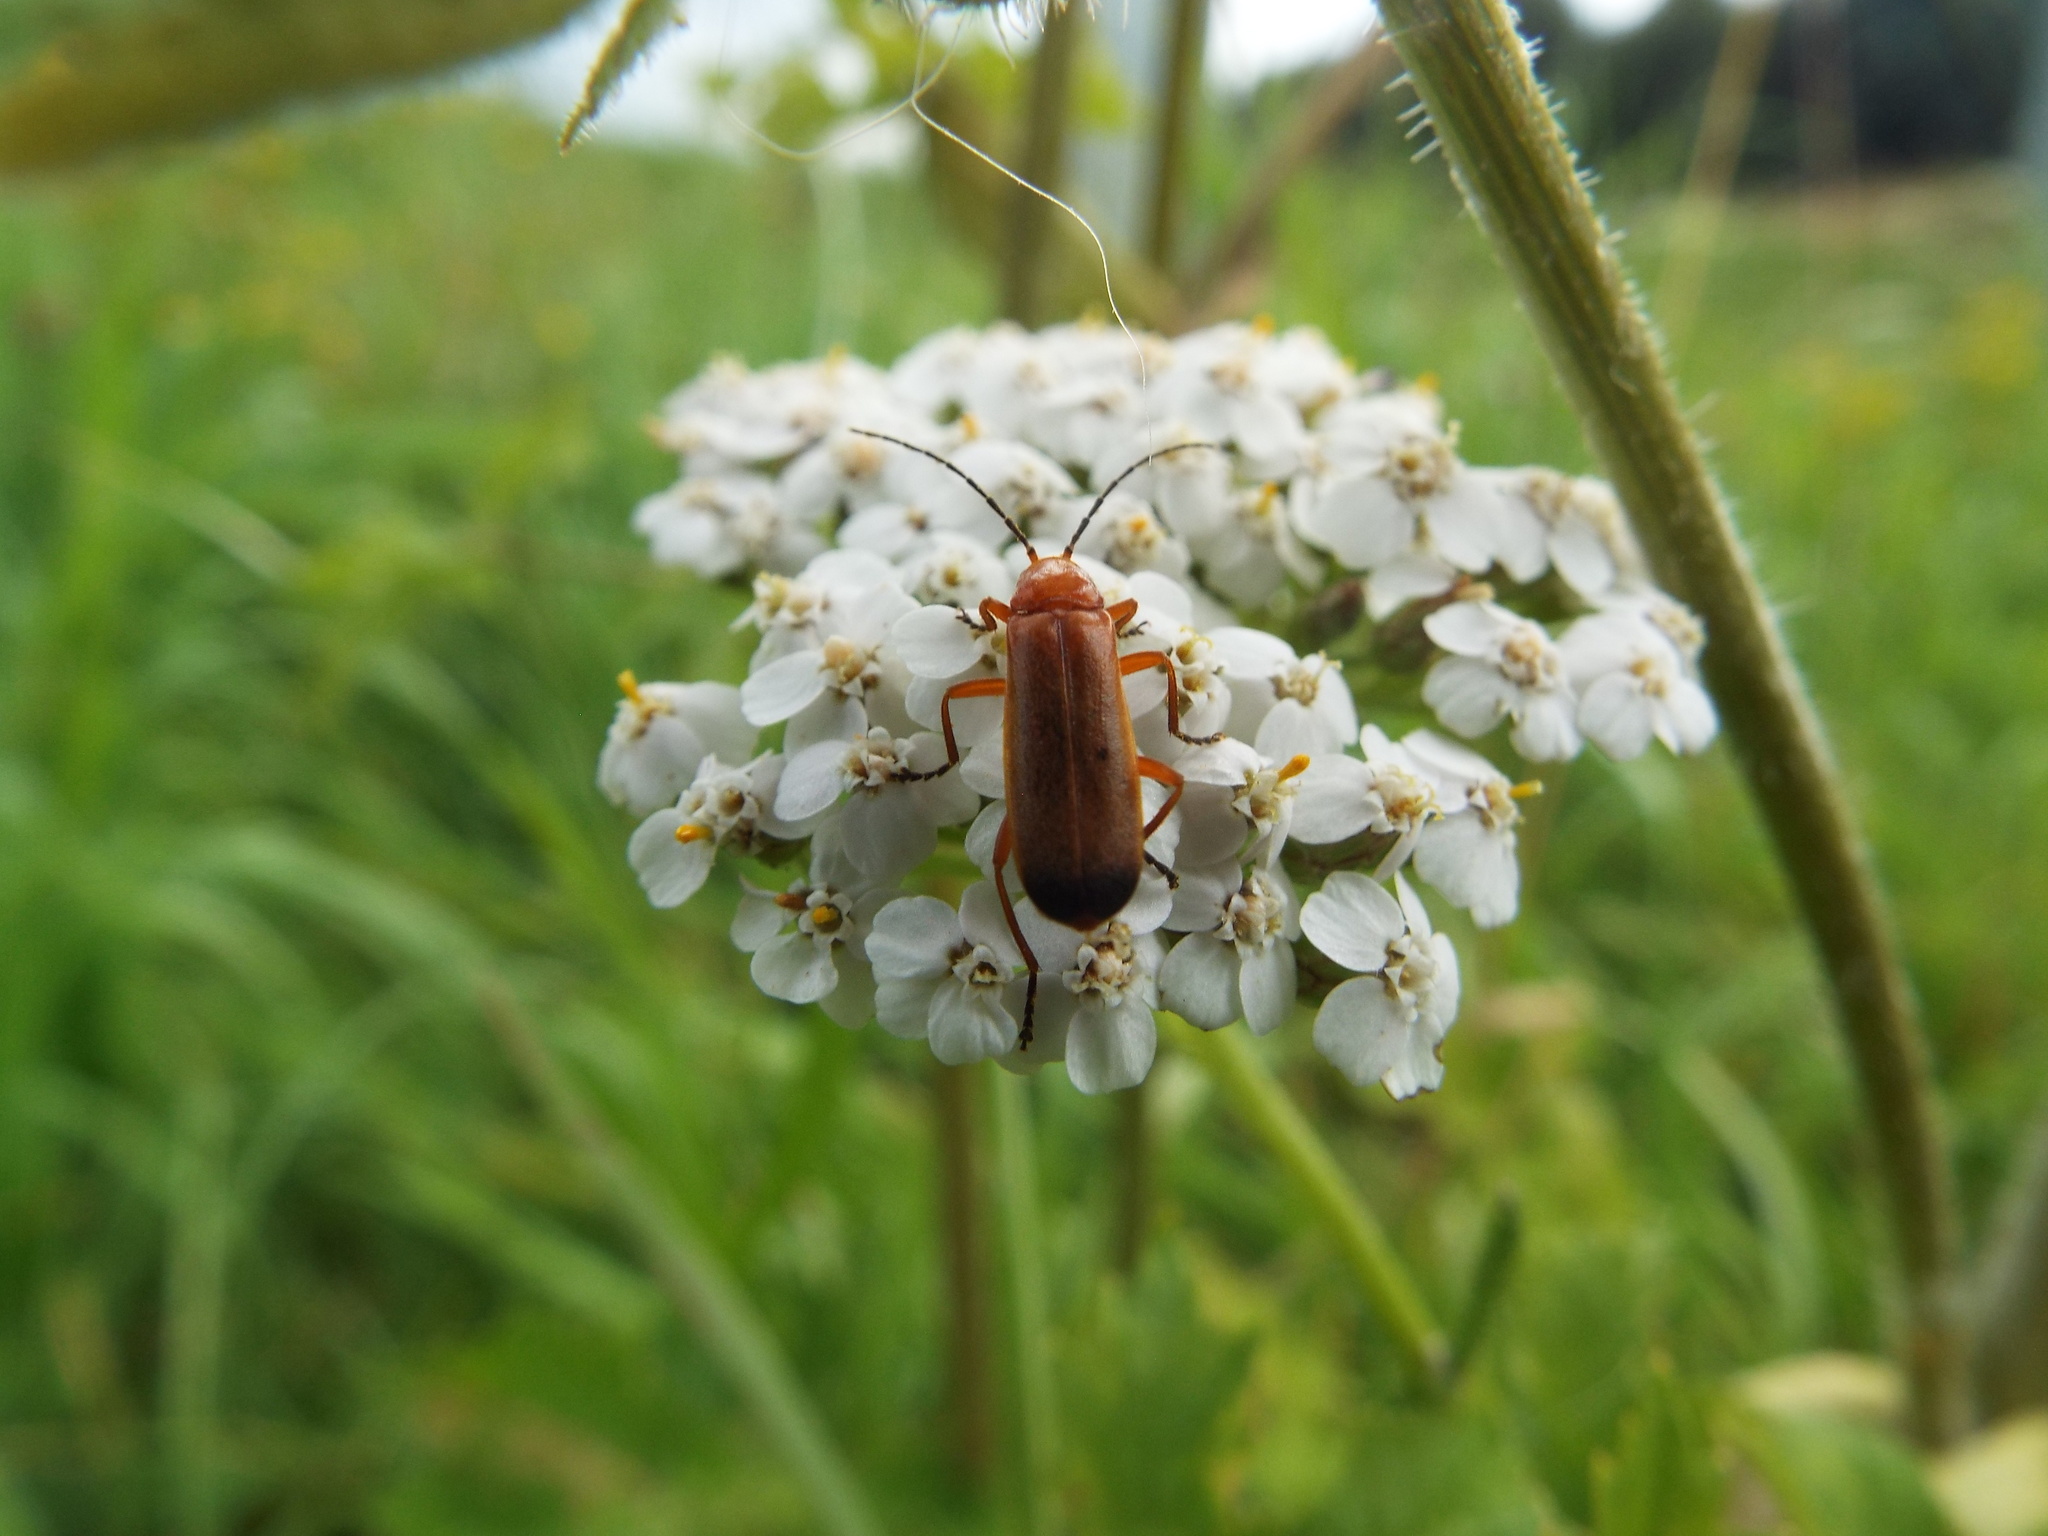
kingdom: Animalia
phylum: Arthropoda
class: Insecta
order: Coleoptera
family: Cantharidae
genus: Rhagonycha
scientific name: Rhagonycha fulva
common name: Common red soldier beetle
